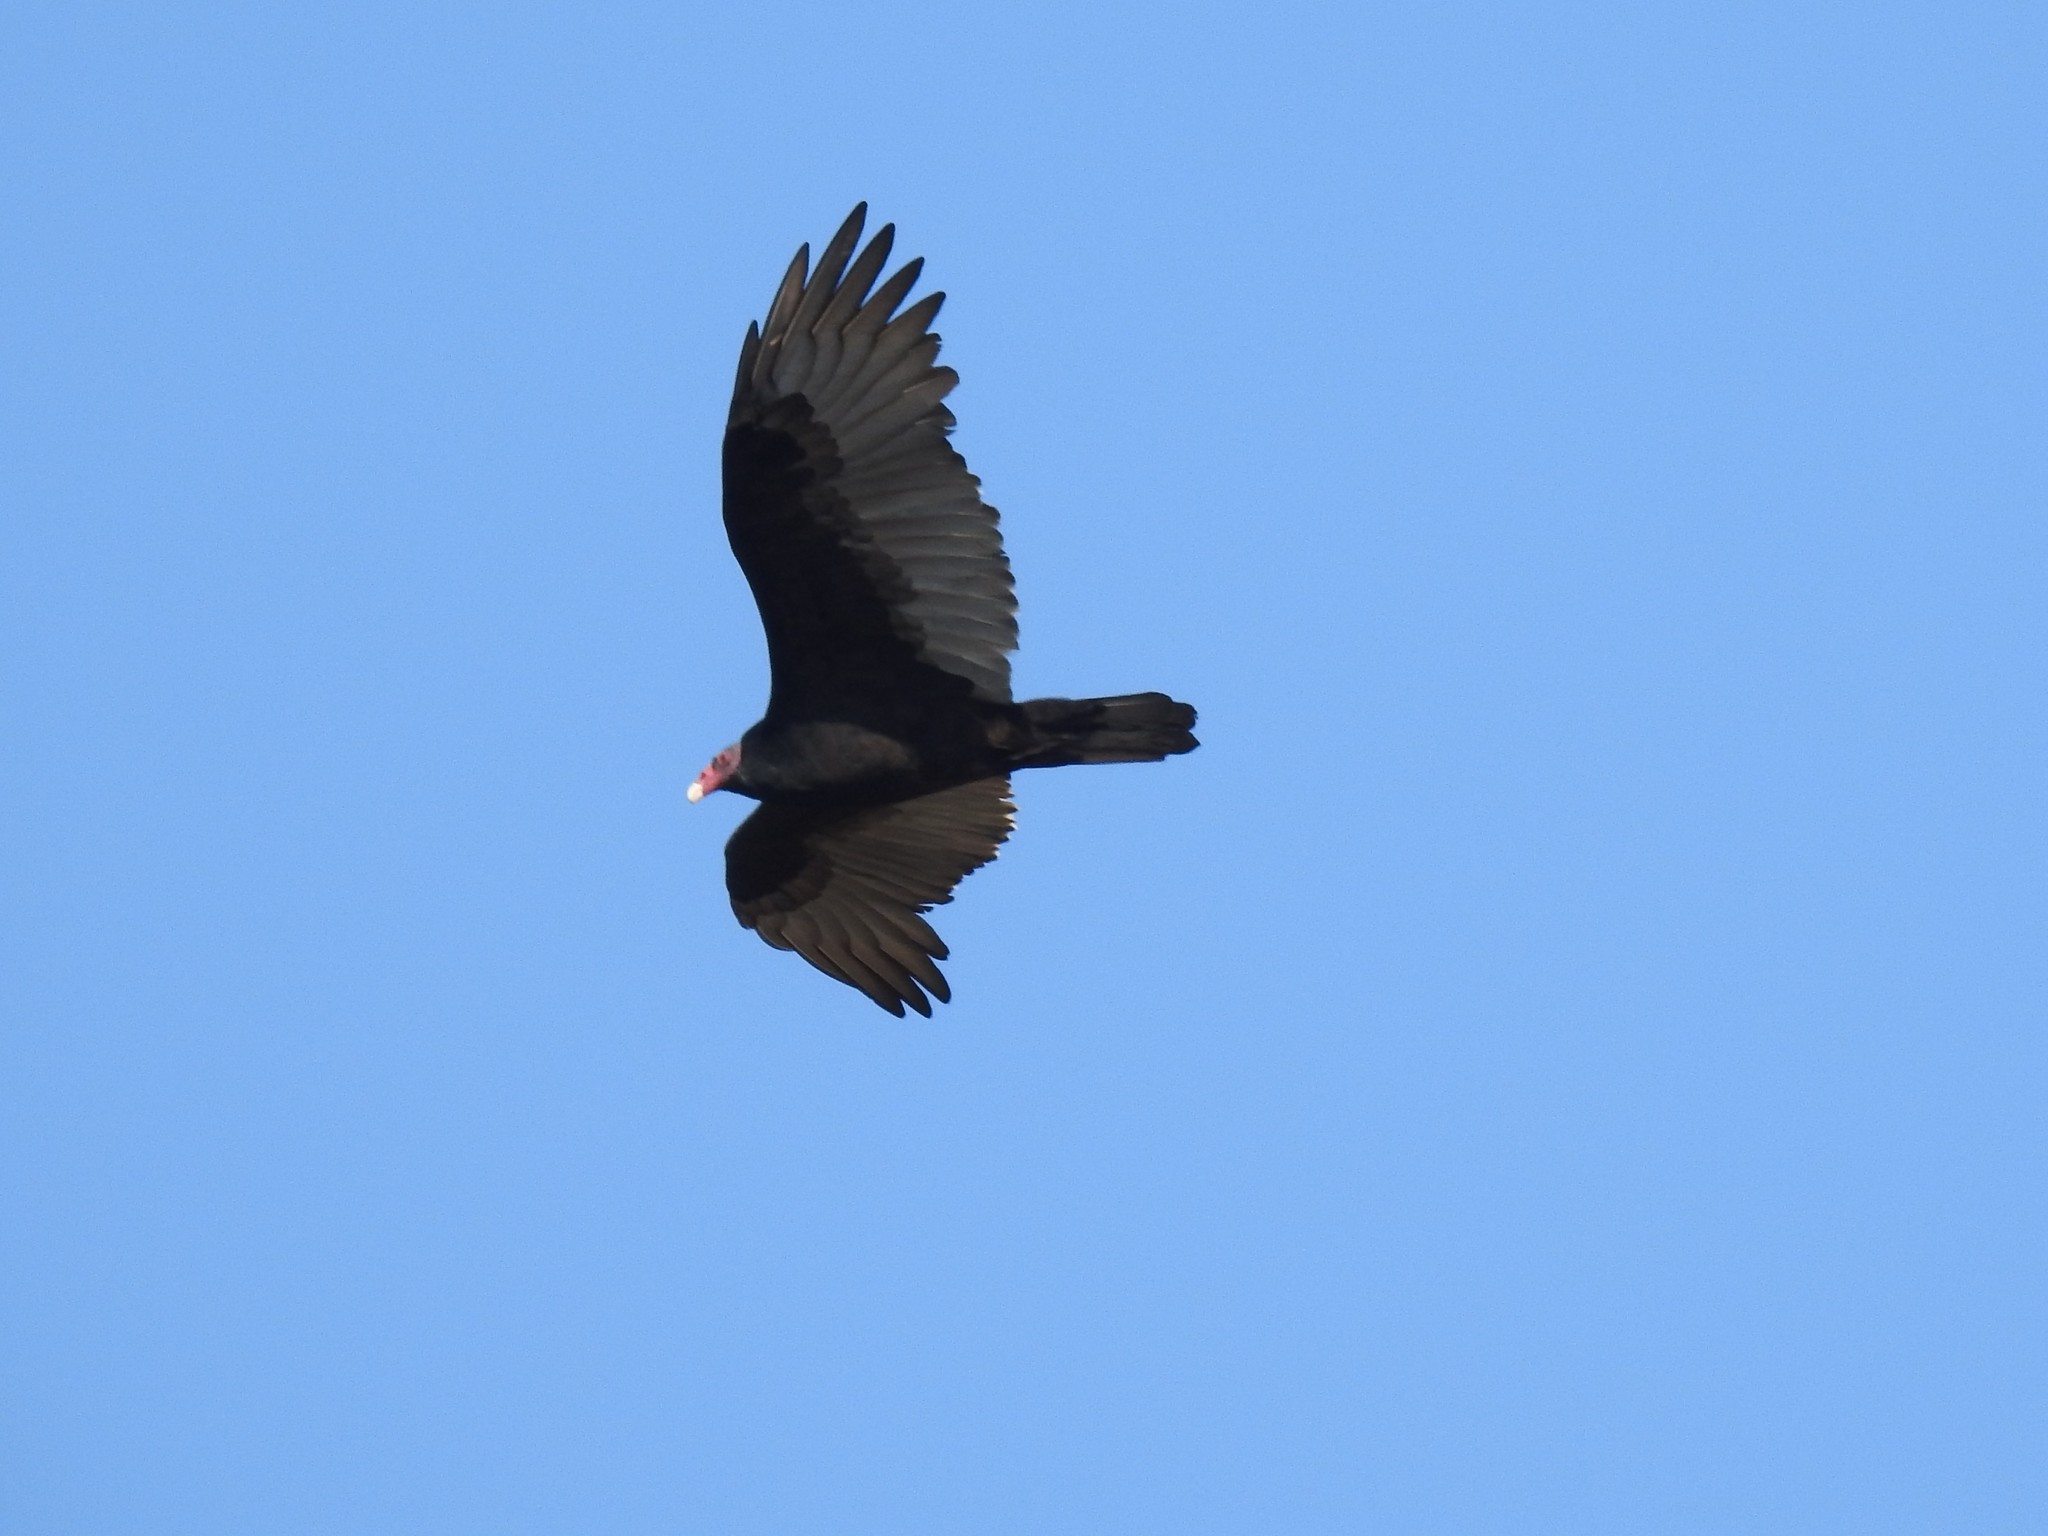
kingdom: Animalia
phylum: Chordata
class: Aves
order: Accipitriformes
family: Cathartidae
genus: Cathartes
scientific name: Cathartes aura
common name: Turkey vulture
